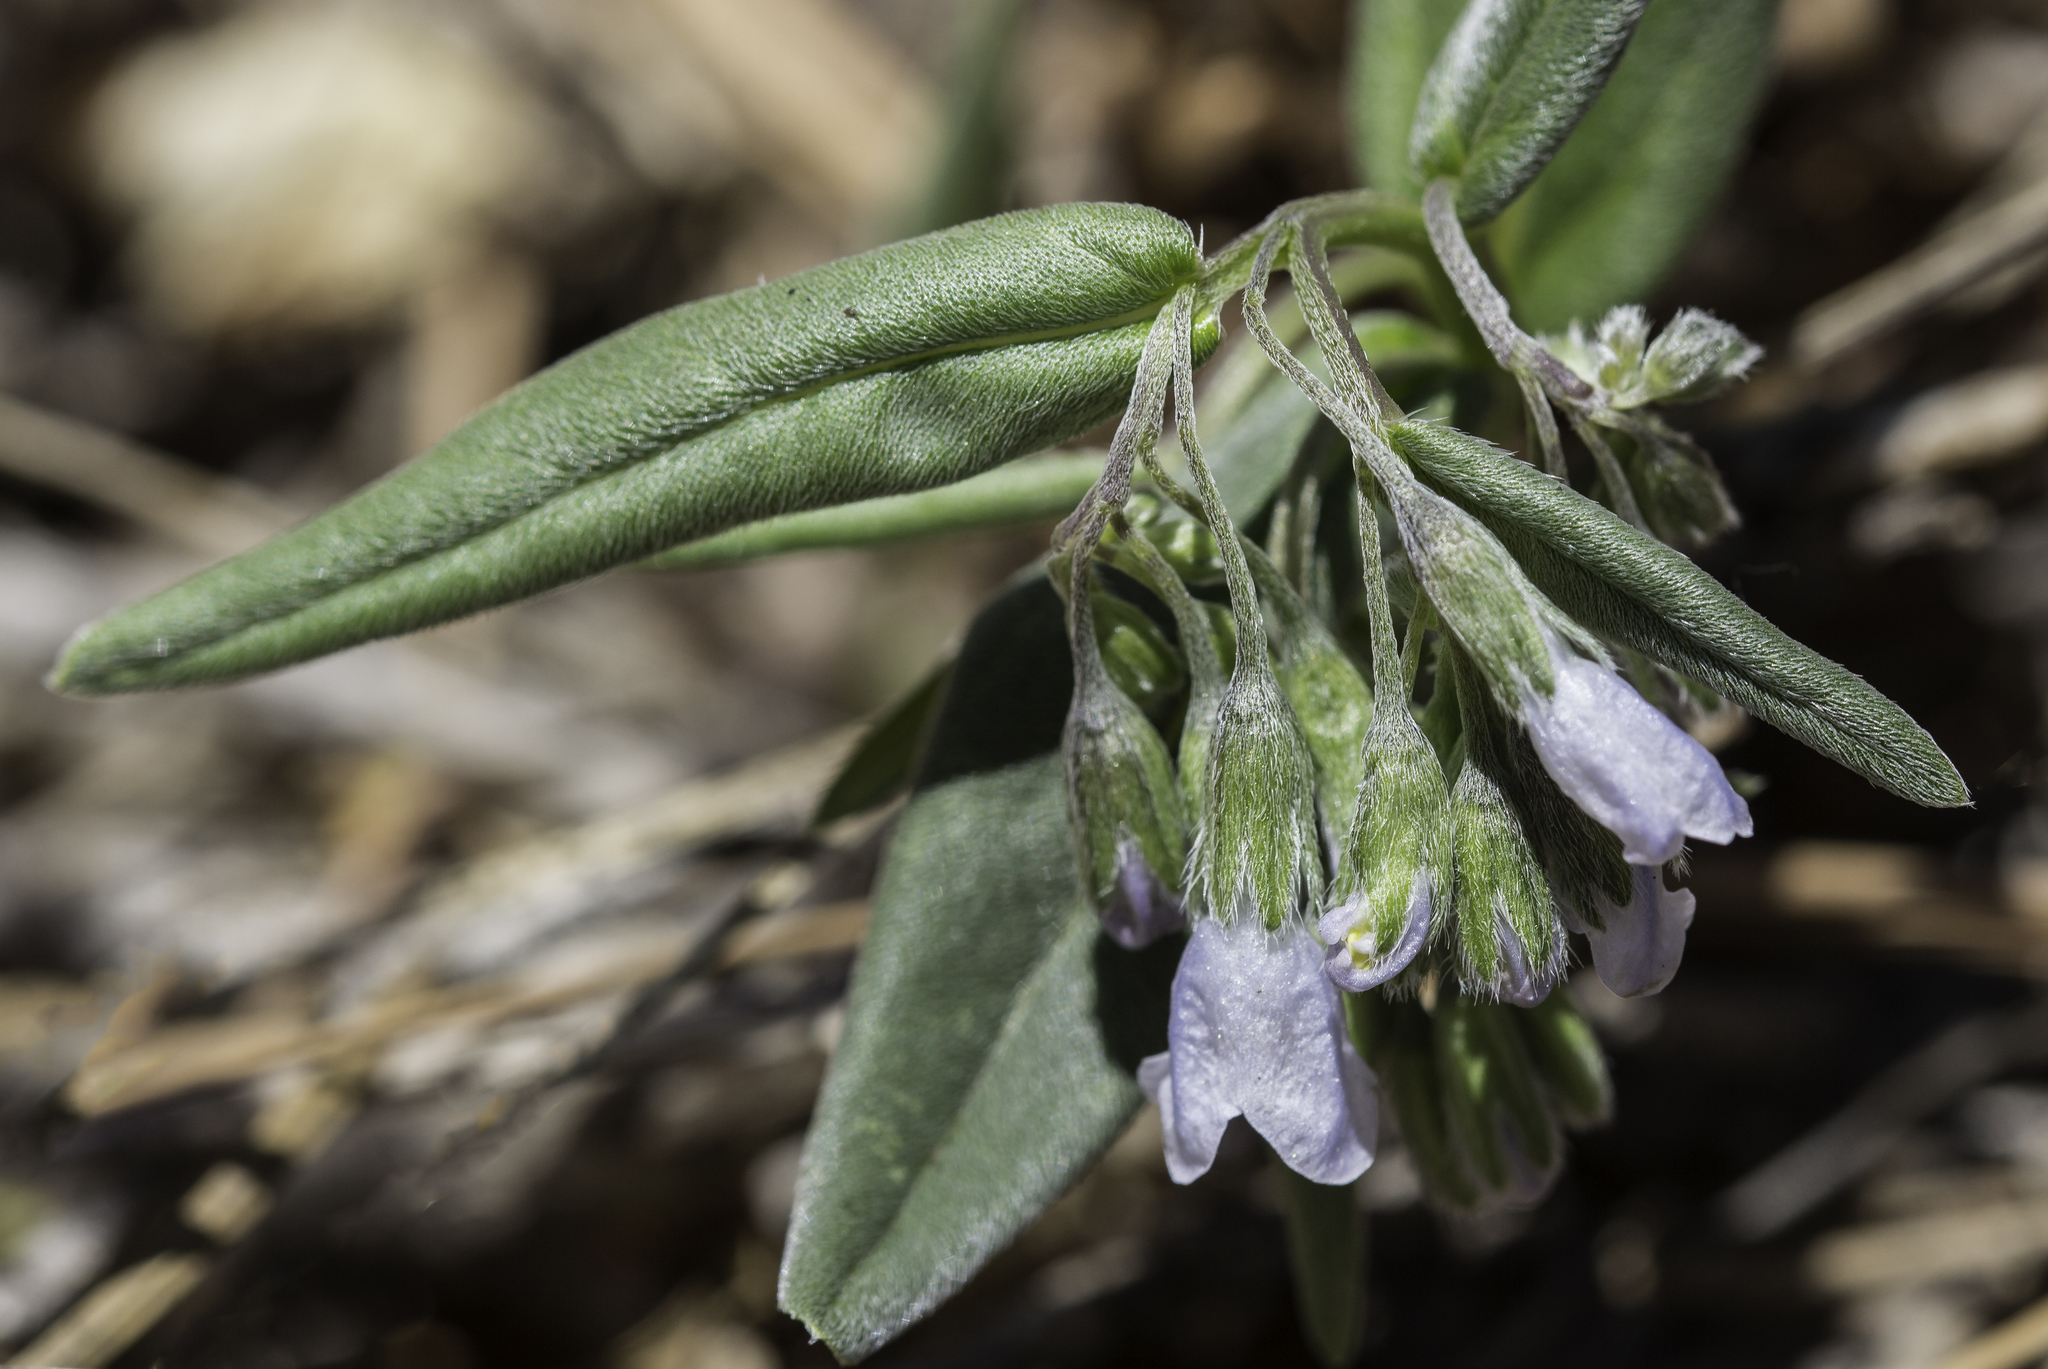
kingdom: Plantae
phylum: Tracheophyta
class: Magnoliopsida
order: Boraginales
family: Boraginaceae
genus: Mertensia
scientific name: Mertensia fendleri
